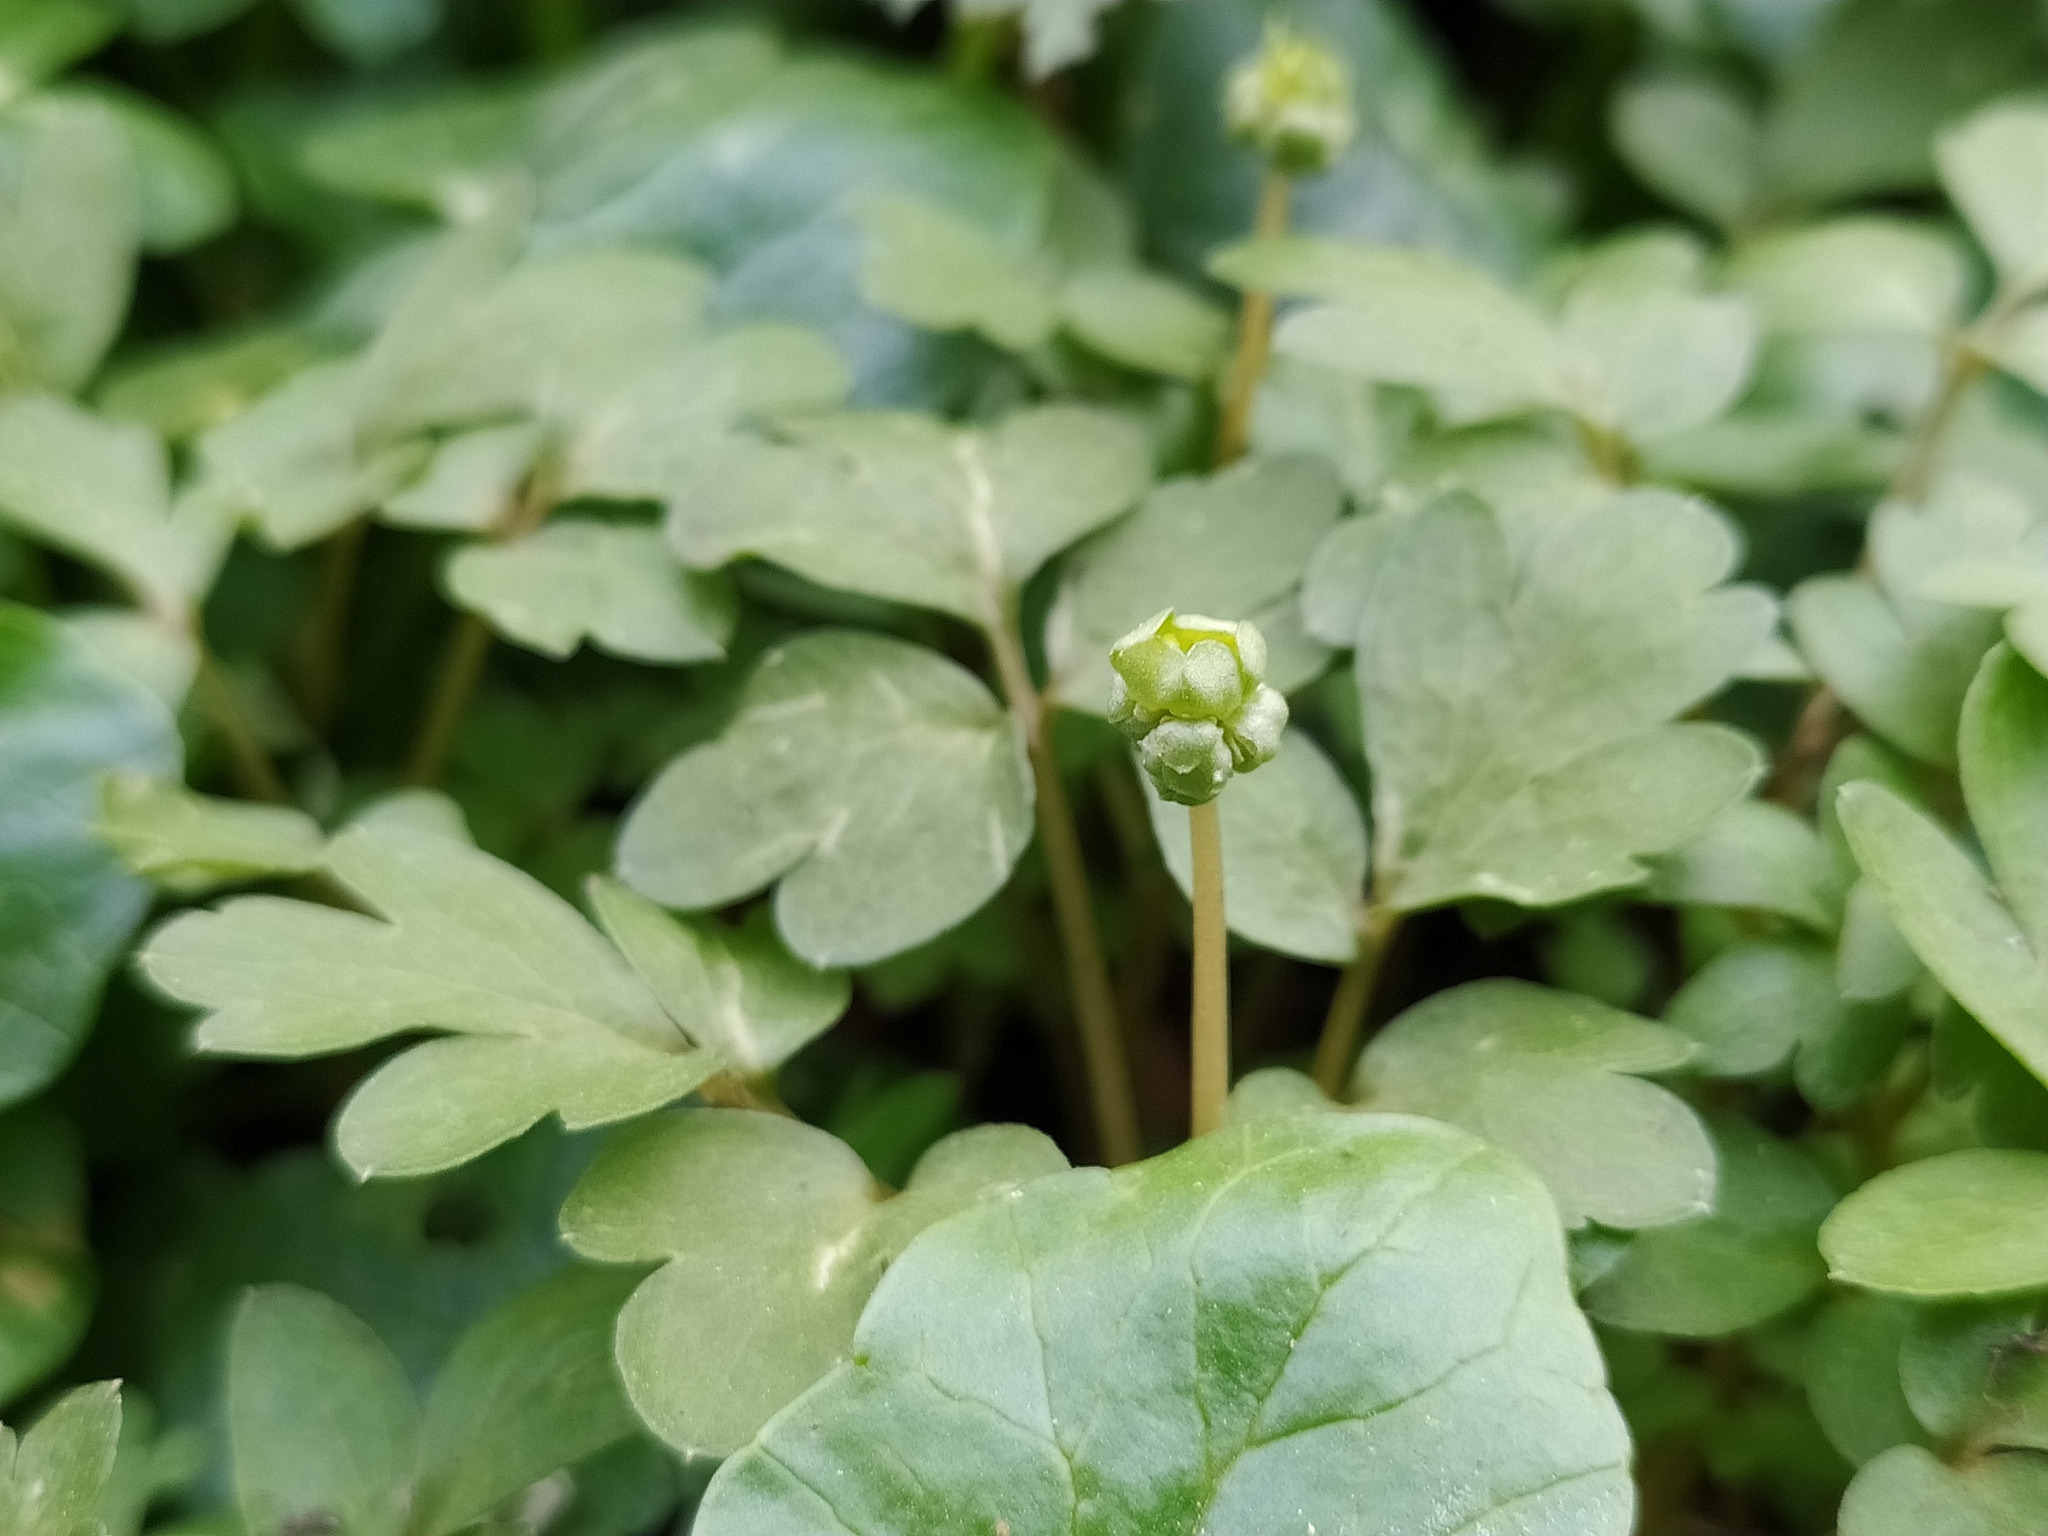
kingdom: Plantae
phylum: Tracheophyta
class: Magnoliopsida
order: Dipsacales
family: Viburnaceae
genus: Adoxa
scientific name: Adoxa moschatellina
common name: Moschatel
